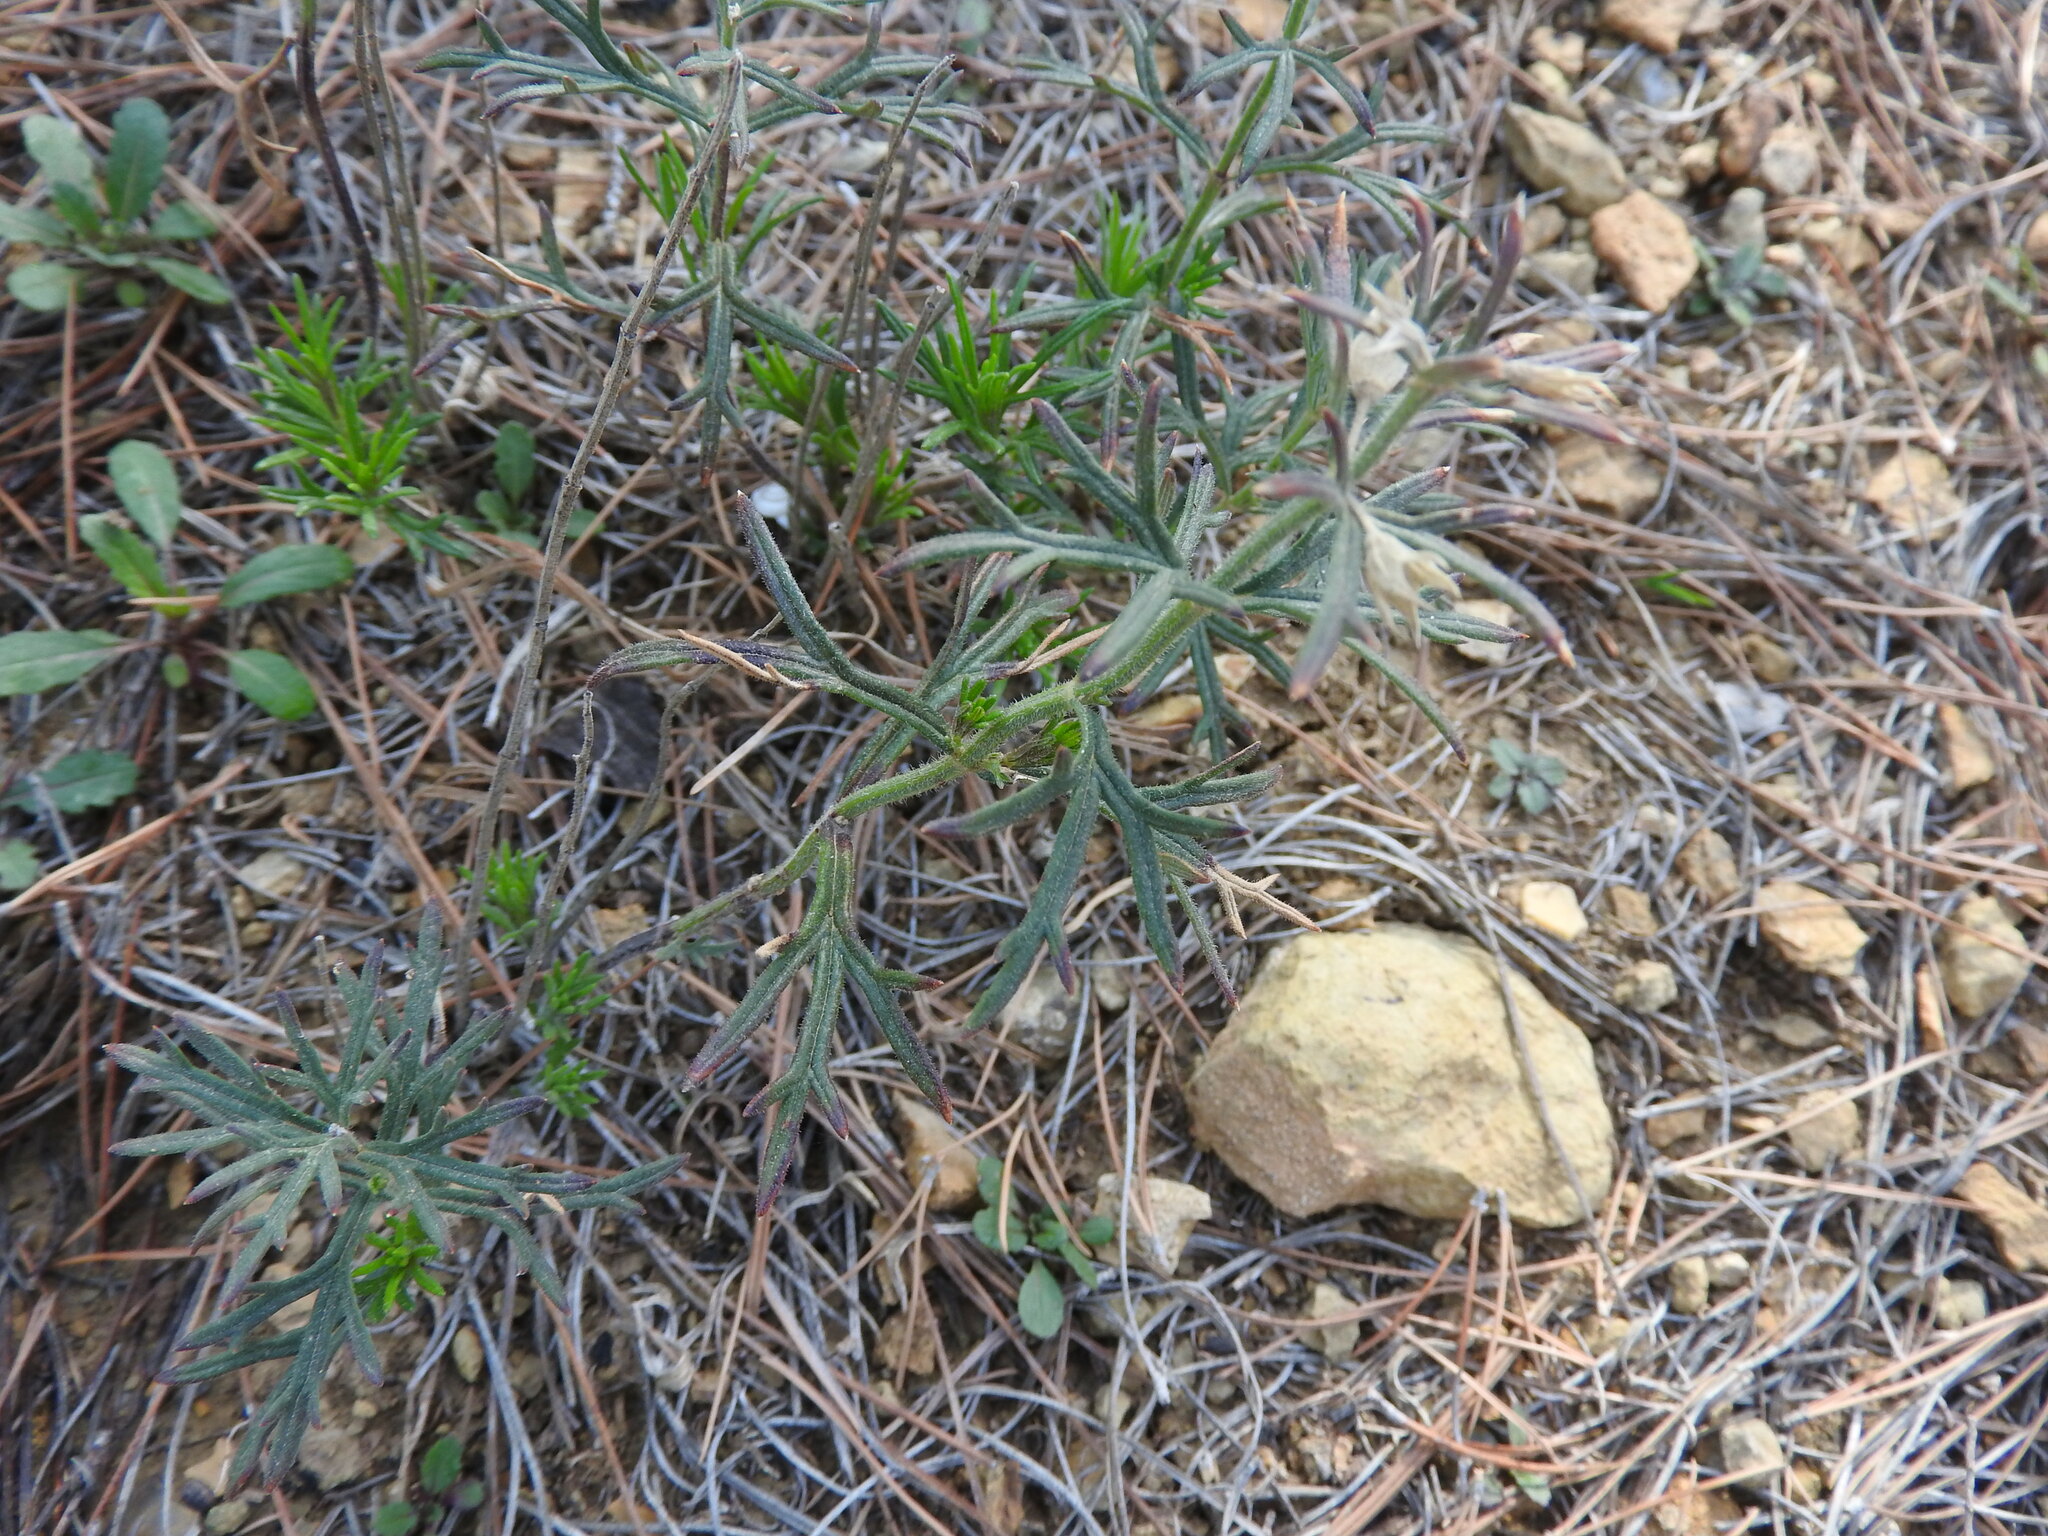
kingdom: Plantae
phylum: Tracheophyta
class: Magnoliopsida
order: Lamiales
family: Lamiaceae
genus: Teucrium
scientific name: Teucrium pseudochamaepitys
